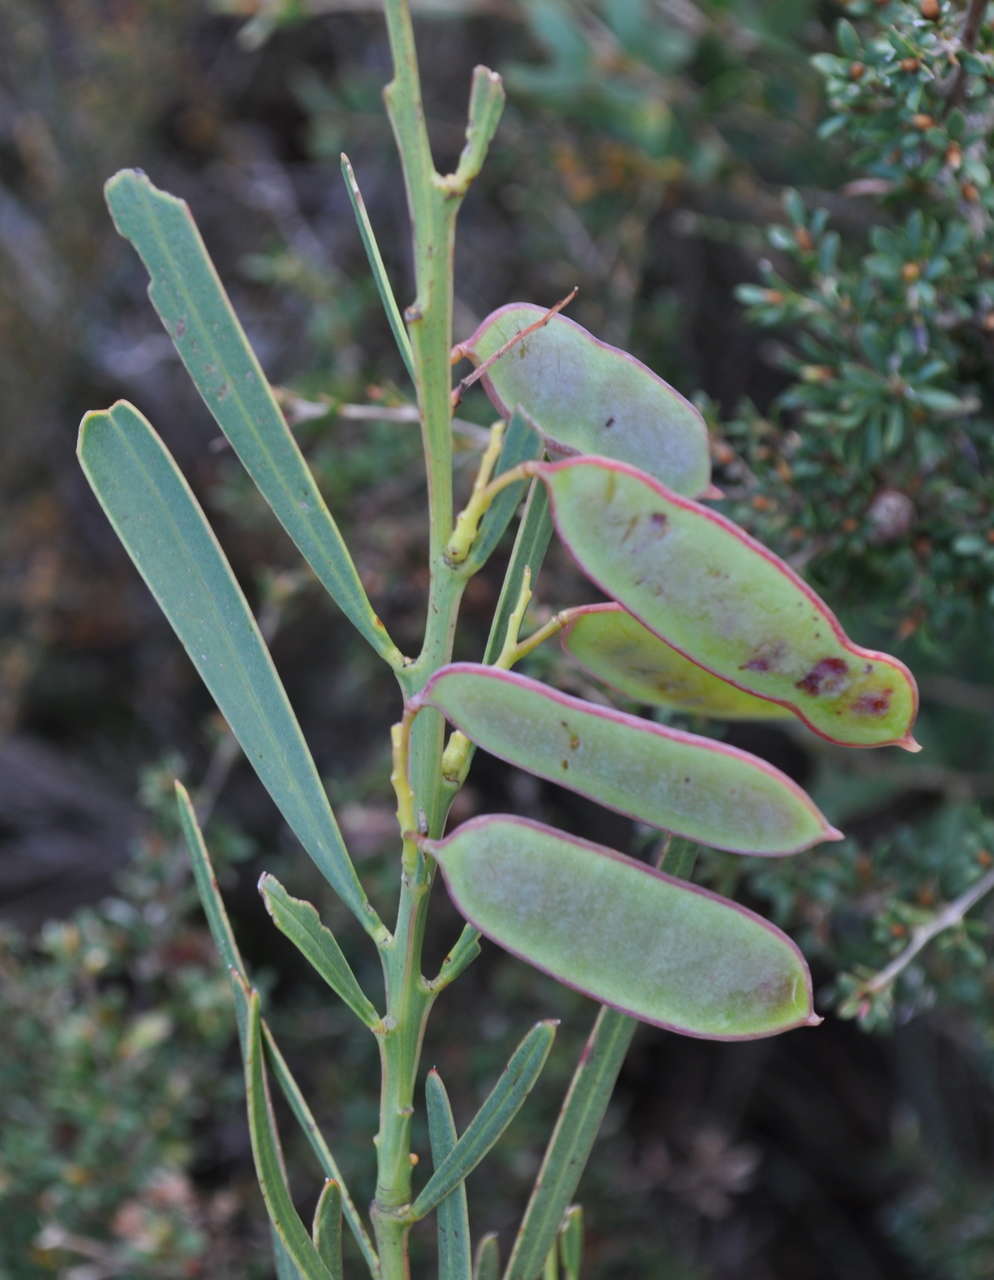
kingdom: Plantae
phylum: Tracheophyta
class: Magnoliopsida
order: Fabales
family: Fabaceae
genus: Acacia
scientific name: Acacia suaveolens
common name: Sweet acacia
